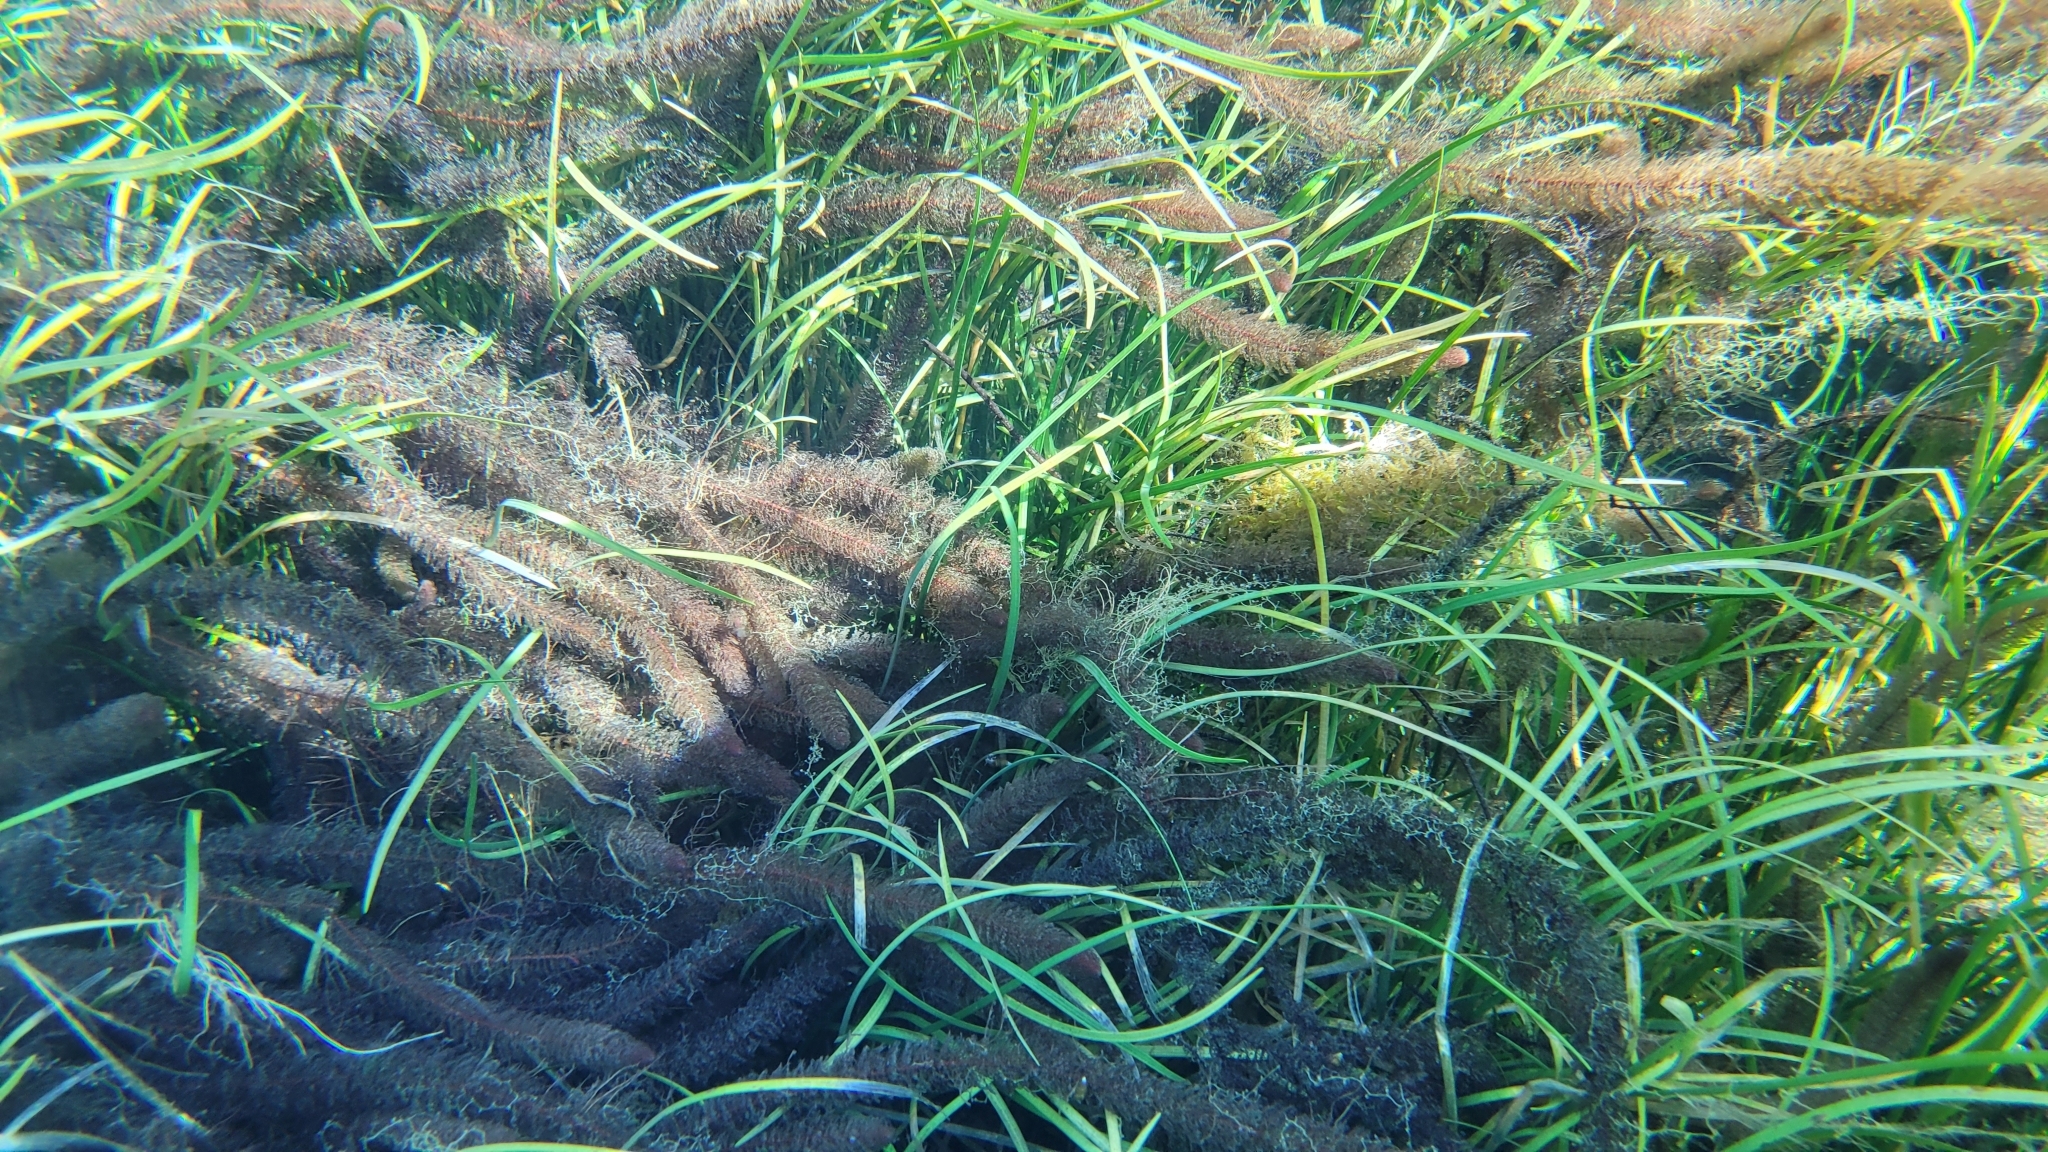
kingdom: Plantae
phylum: Tracheophyta
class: Magnoliopsida
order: Saxifragales
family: Haloragaceae
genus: Myriophyllum
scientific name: Myriophyllum heterophyllum
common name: Variable watermilfoil
